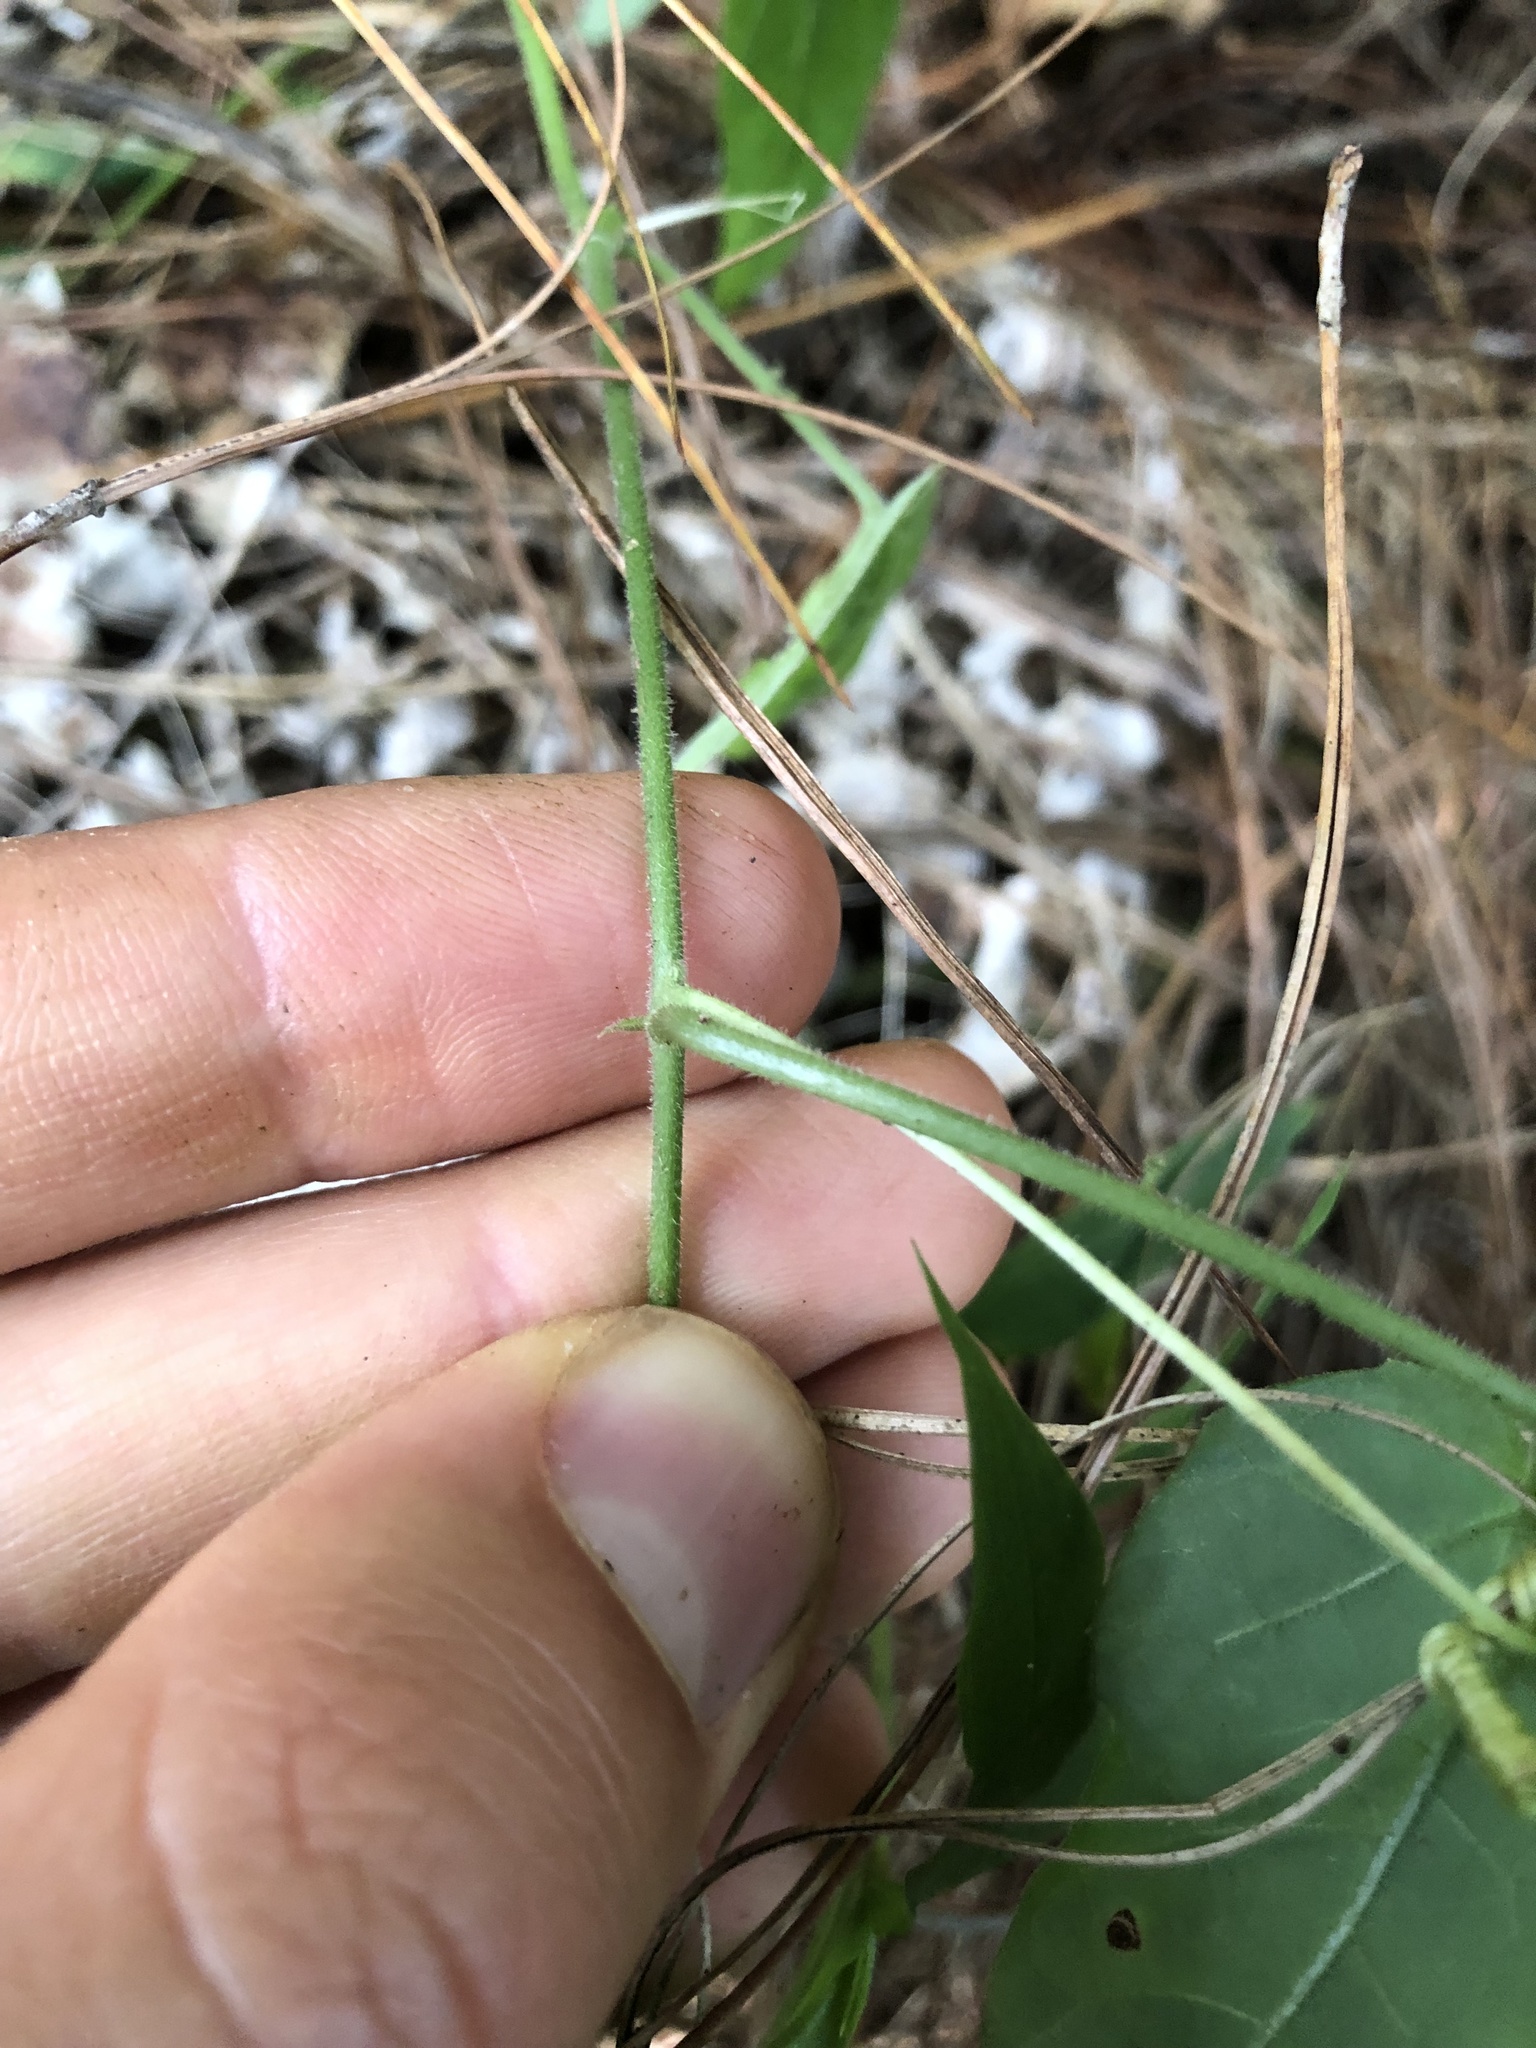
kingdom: Plantae
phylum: Tracheophyta
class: Magnoliopsida
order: Malpighiales
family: Passifloraceae
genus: Passiflora
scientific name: Passiflora adenopoda
